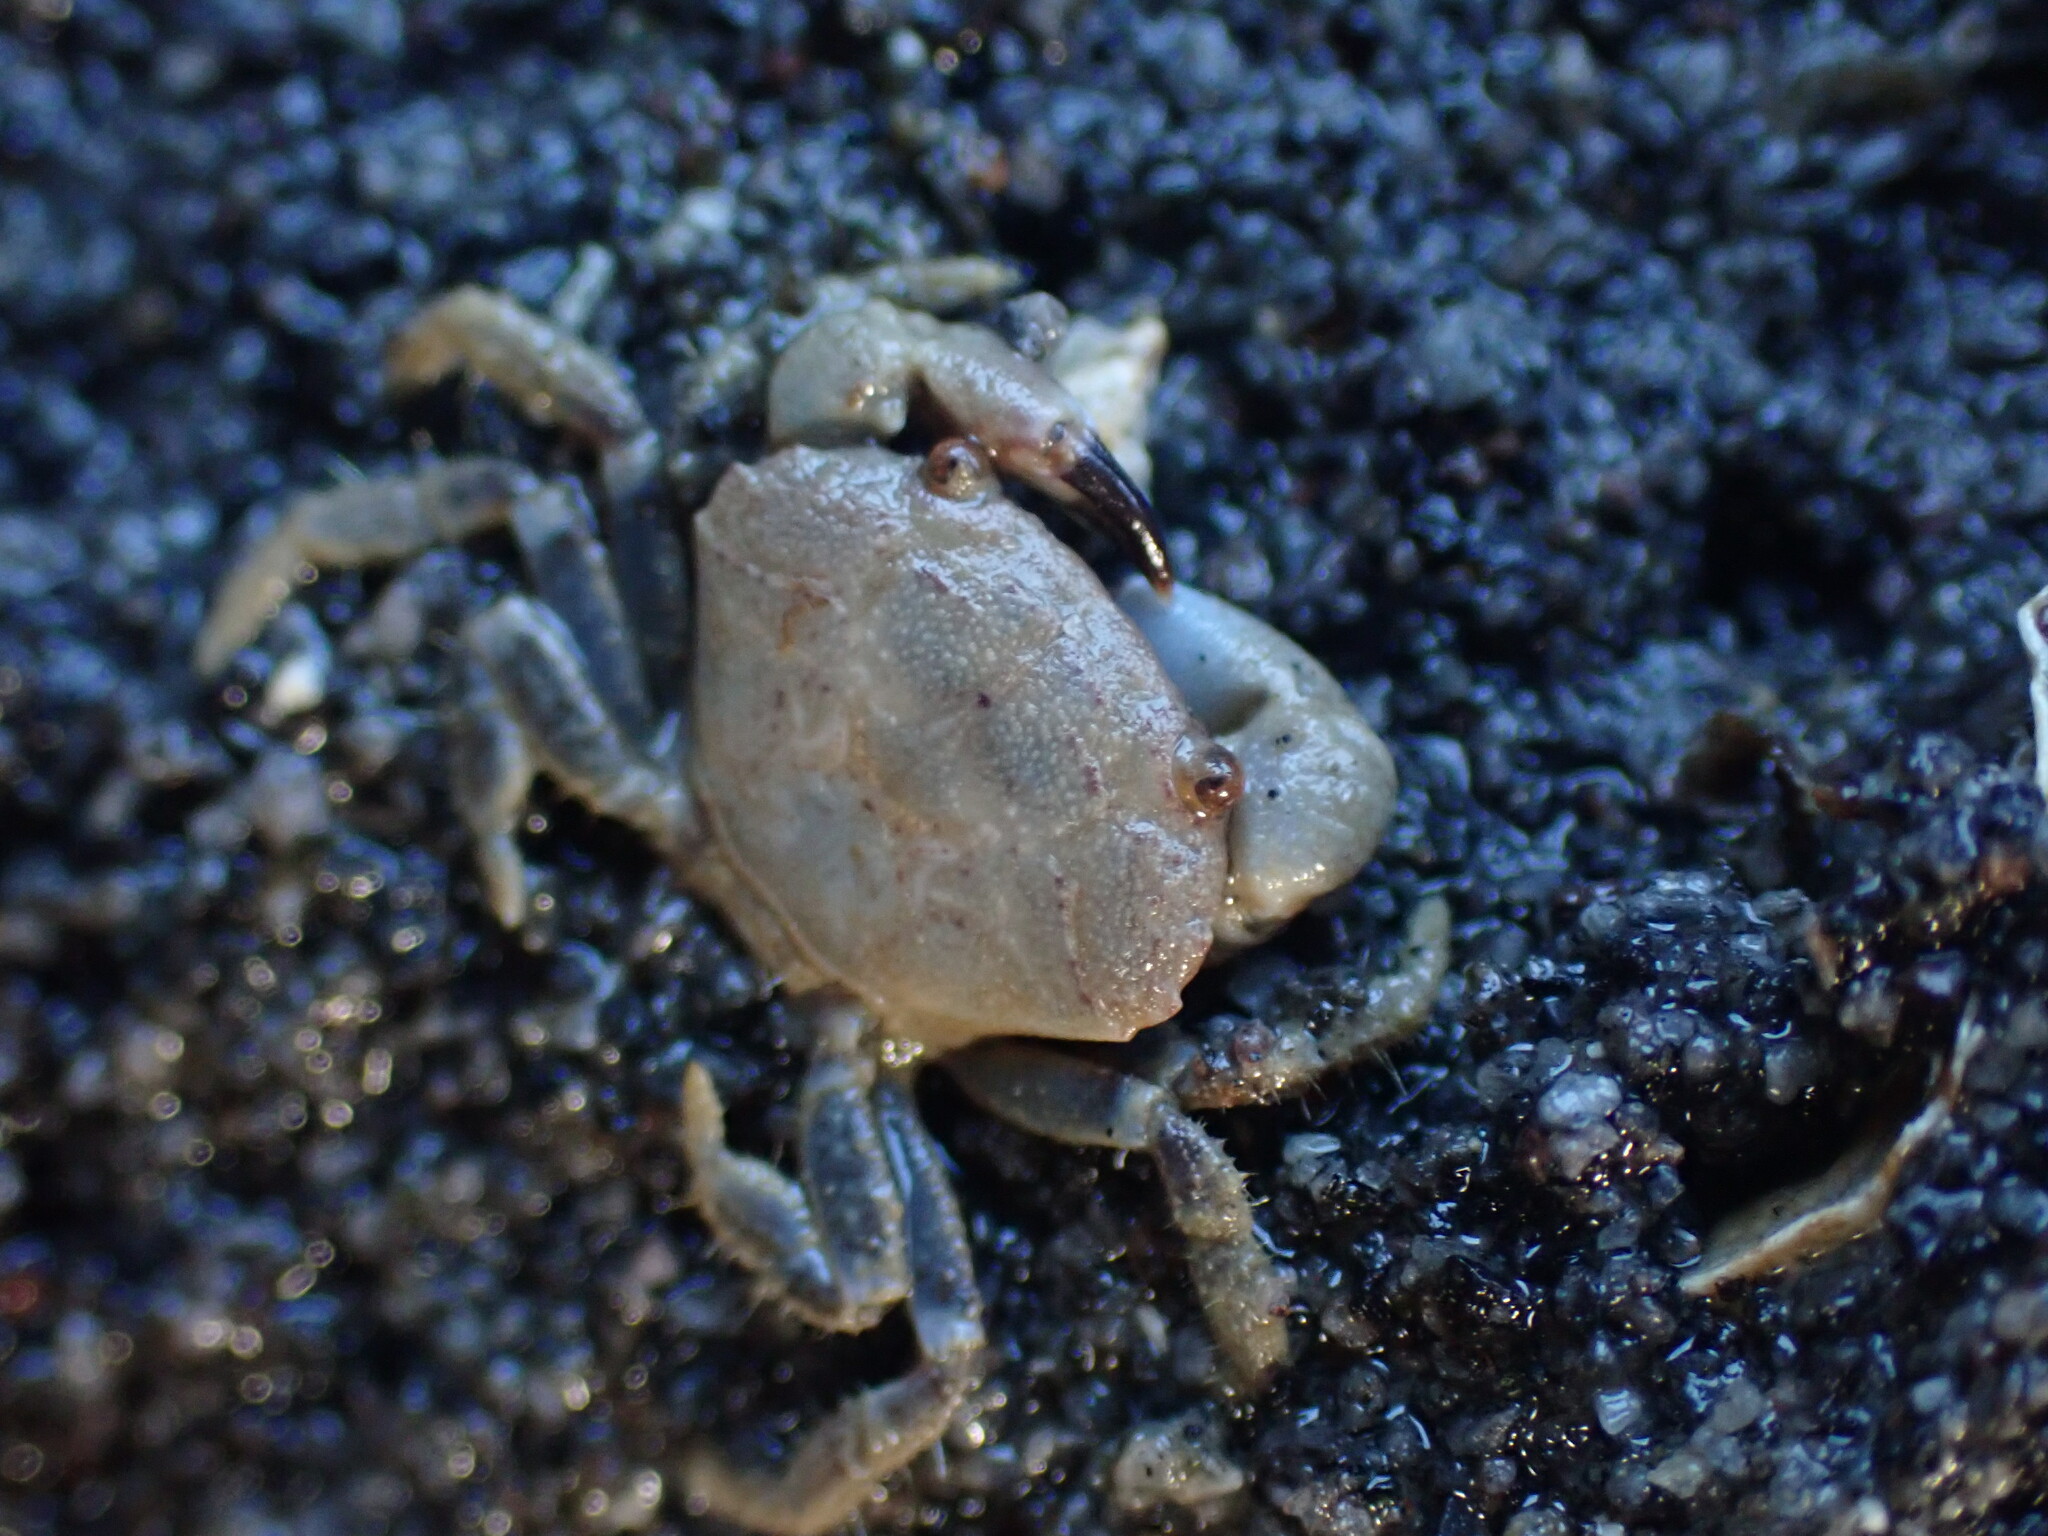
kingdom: Animalia
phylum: Arthropoda
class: Malacostraca
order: Decapoda
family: Oziidae
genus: Ozius
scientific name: Ozius deplanatus
